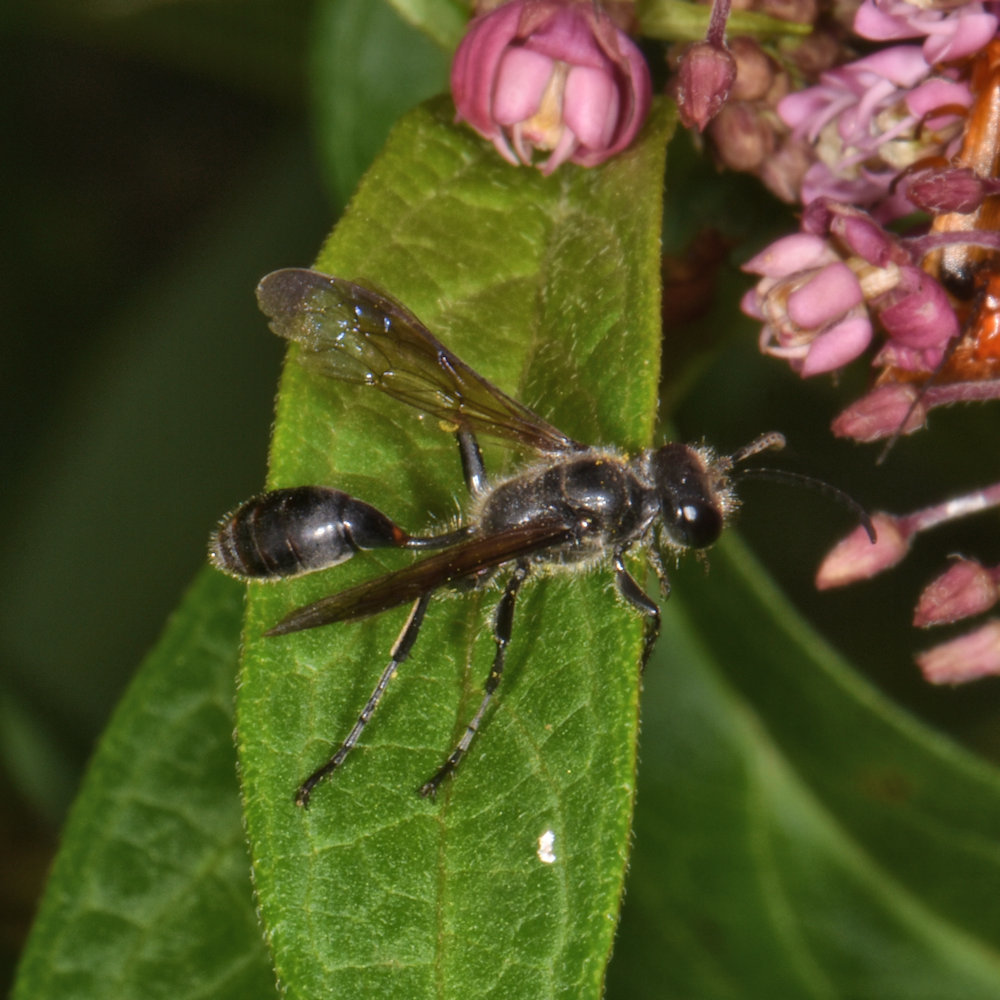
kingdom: Animalia
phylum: Arthropoda
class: Insecta
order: Hymenoptera
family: Sphecidae
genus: Isodontia
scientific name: Isodontia mexicana
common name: Mud dauber
